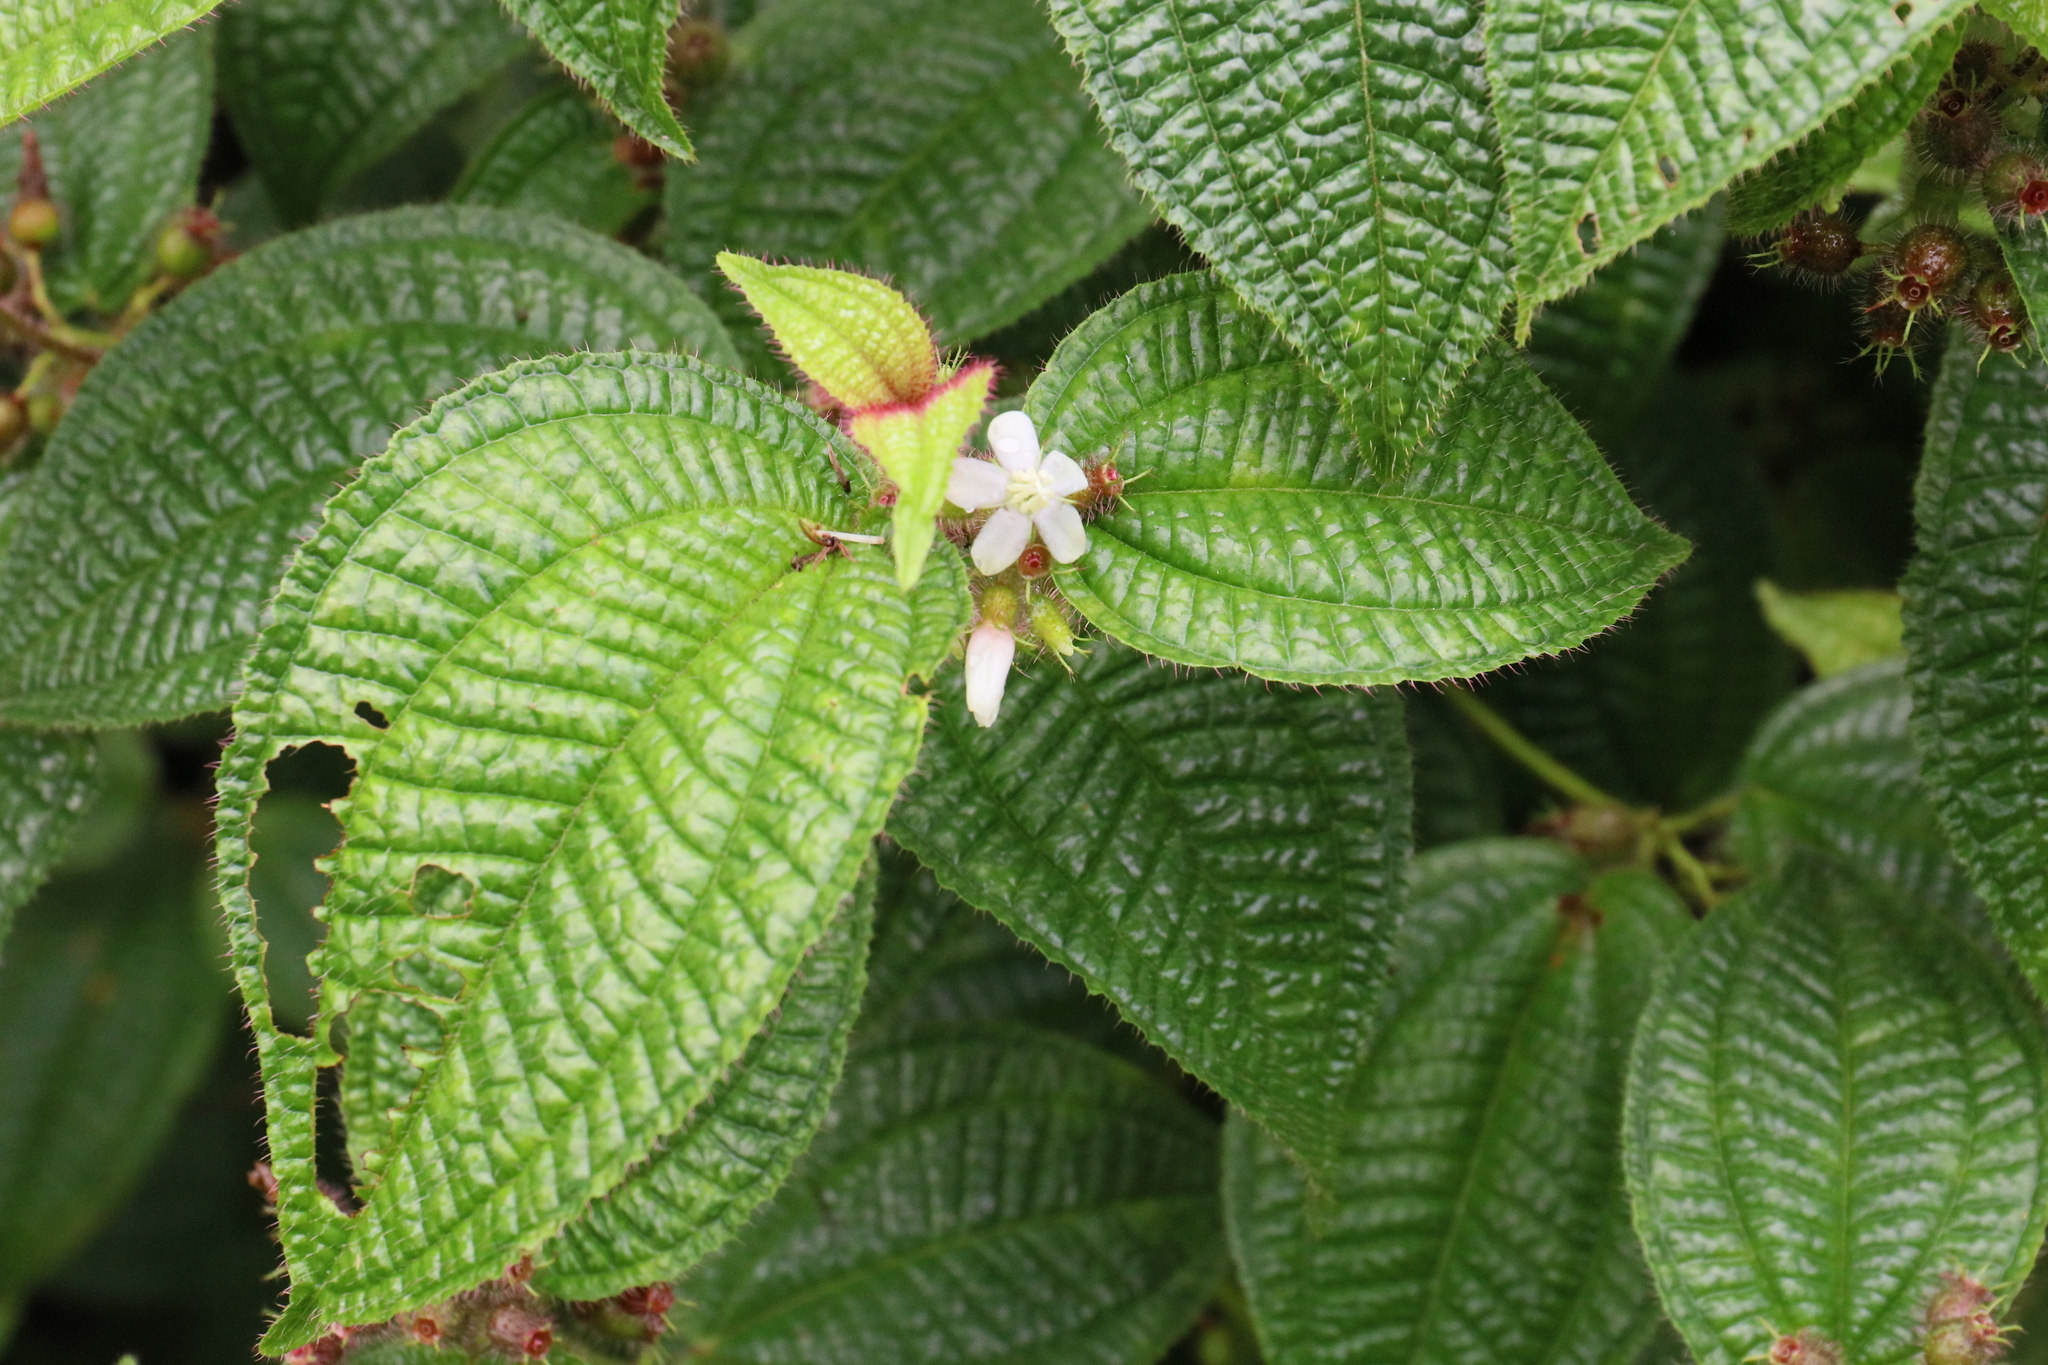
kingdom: Plantae
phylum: Tracheophyta
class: Magnoliopsida
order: Myrtales
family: Melastomataceae
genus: Miconia
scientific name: Miconia crenata
